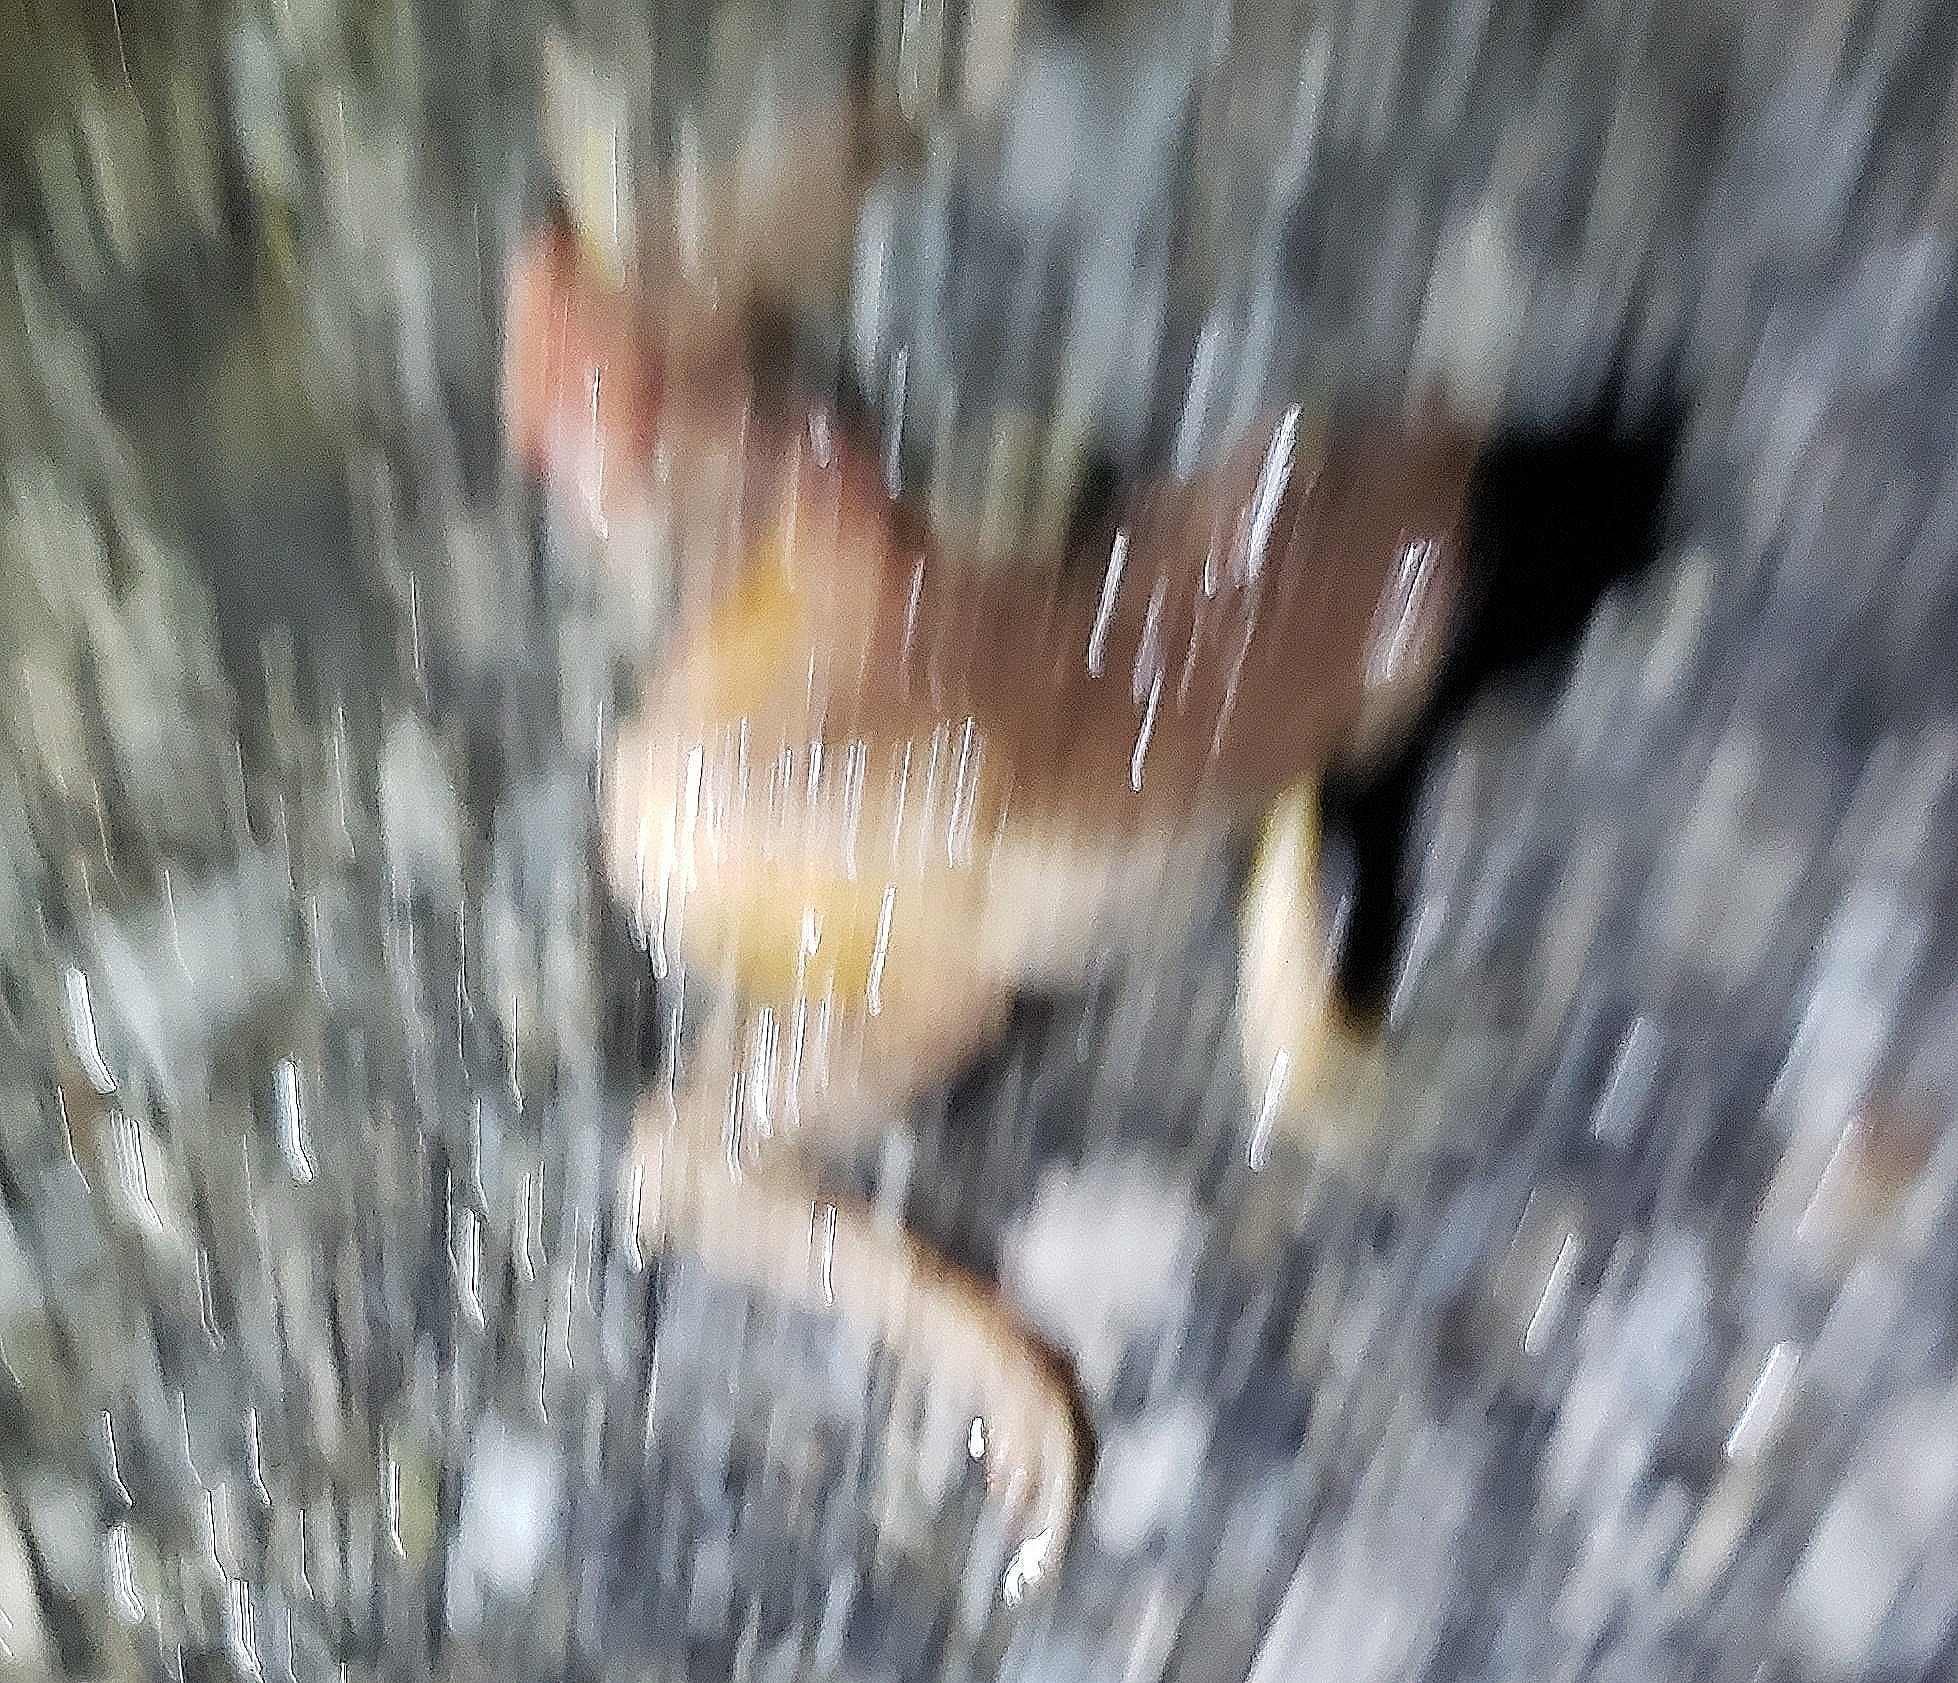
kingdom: Animalia
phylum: Chordata
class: Amphibia
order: Anura
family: Hylidae
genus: Pseudacris
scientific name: Pseudacris crucifer
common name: Spring peeper
